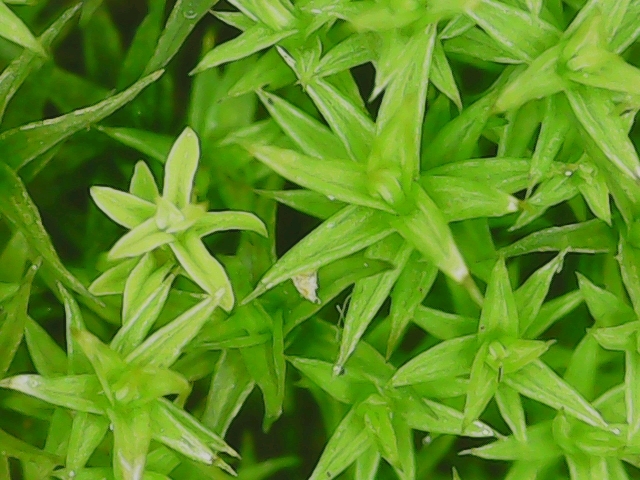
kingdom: Plantae
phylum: Bryophyta
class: Bryopsida
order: Pottiales
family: Pottiaceae
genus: Pseudocrossidium
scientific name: Pseudocrossidium hornschuchianum
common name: Hornschuch's beard-moss
